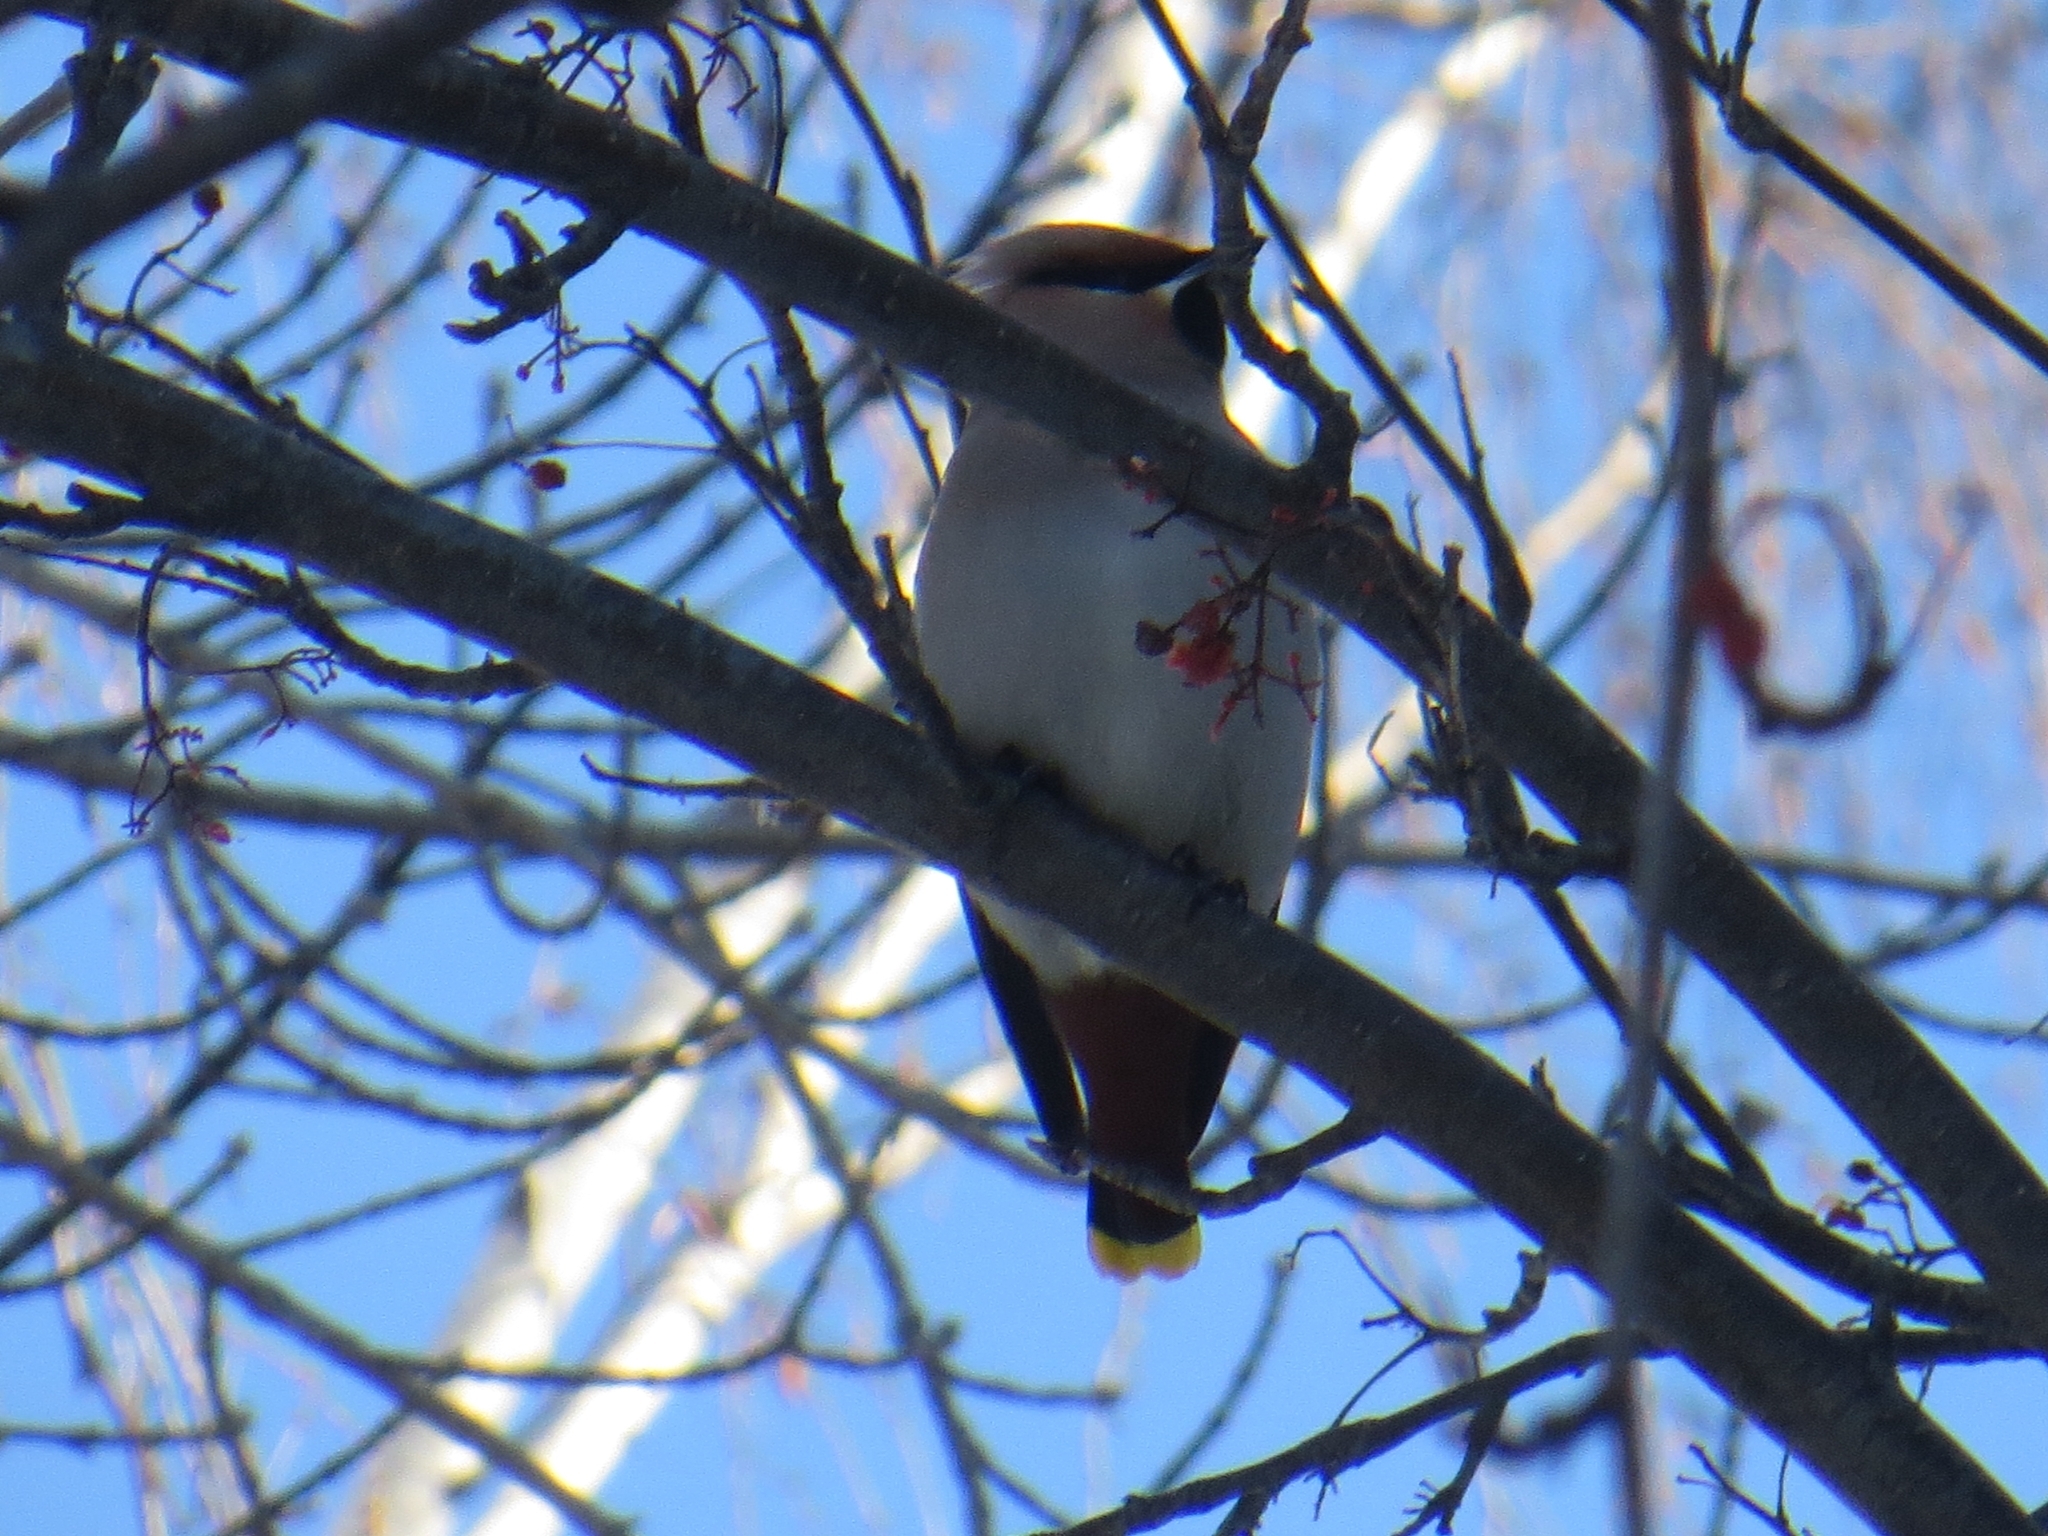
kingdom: Animalia
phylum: Chordata
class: Aves
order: Passeriformes
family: Bombycillidae
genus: Bombycilla
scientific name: Bombycilla garrulus
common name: Bohemian waxwing
